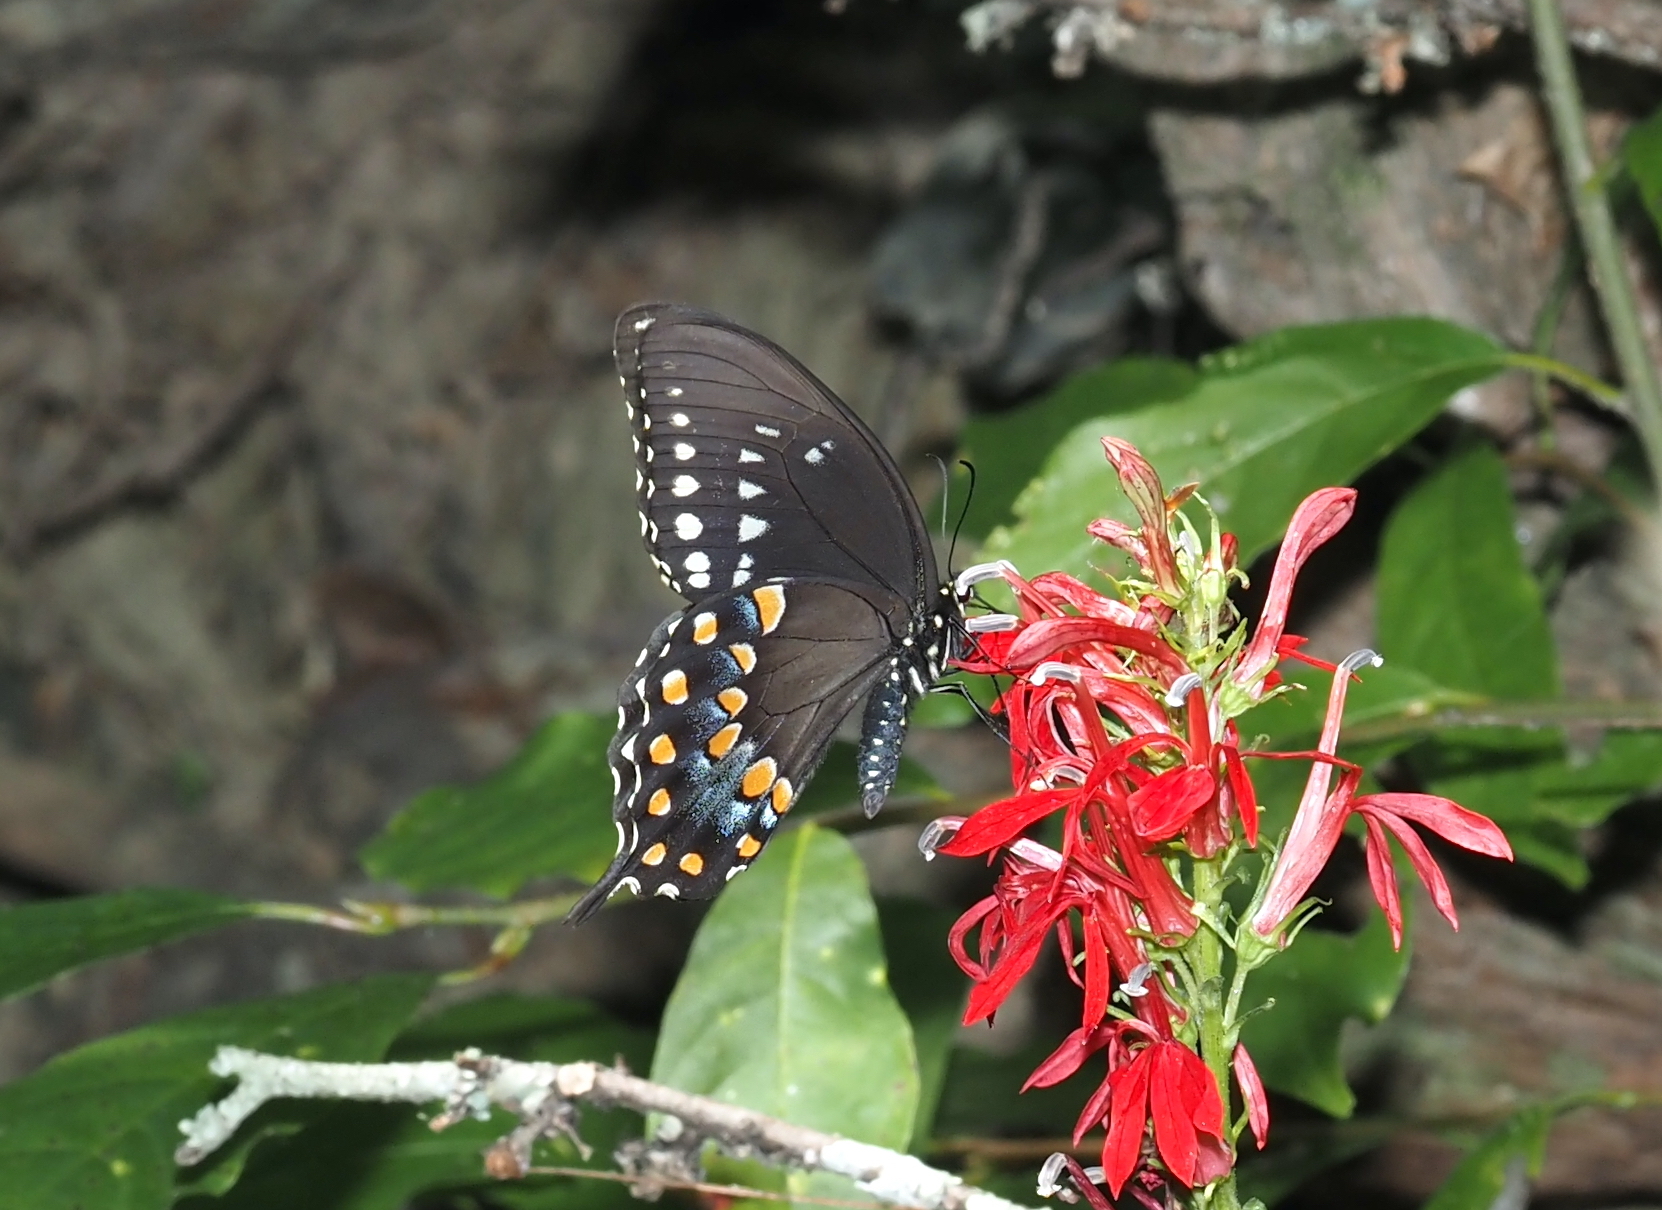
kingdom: Animalia
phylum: Arthropoda
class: Insecta
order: Lepidoptera
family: Papilionidae
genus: Papilio
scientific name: Papilio troilus
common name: Spicebush swallowtail
